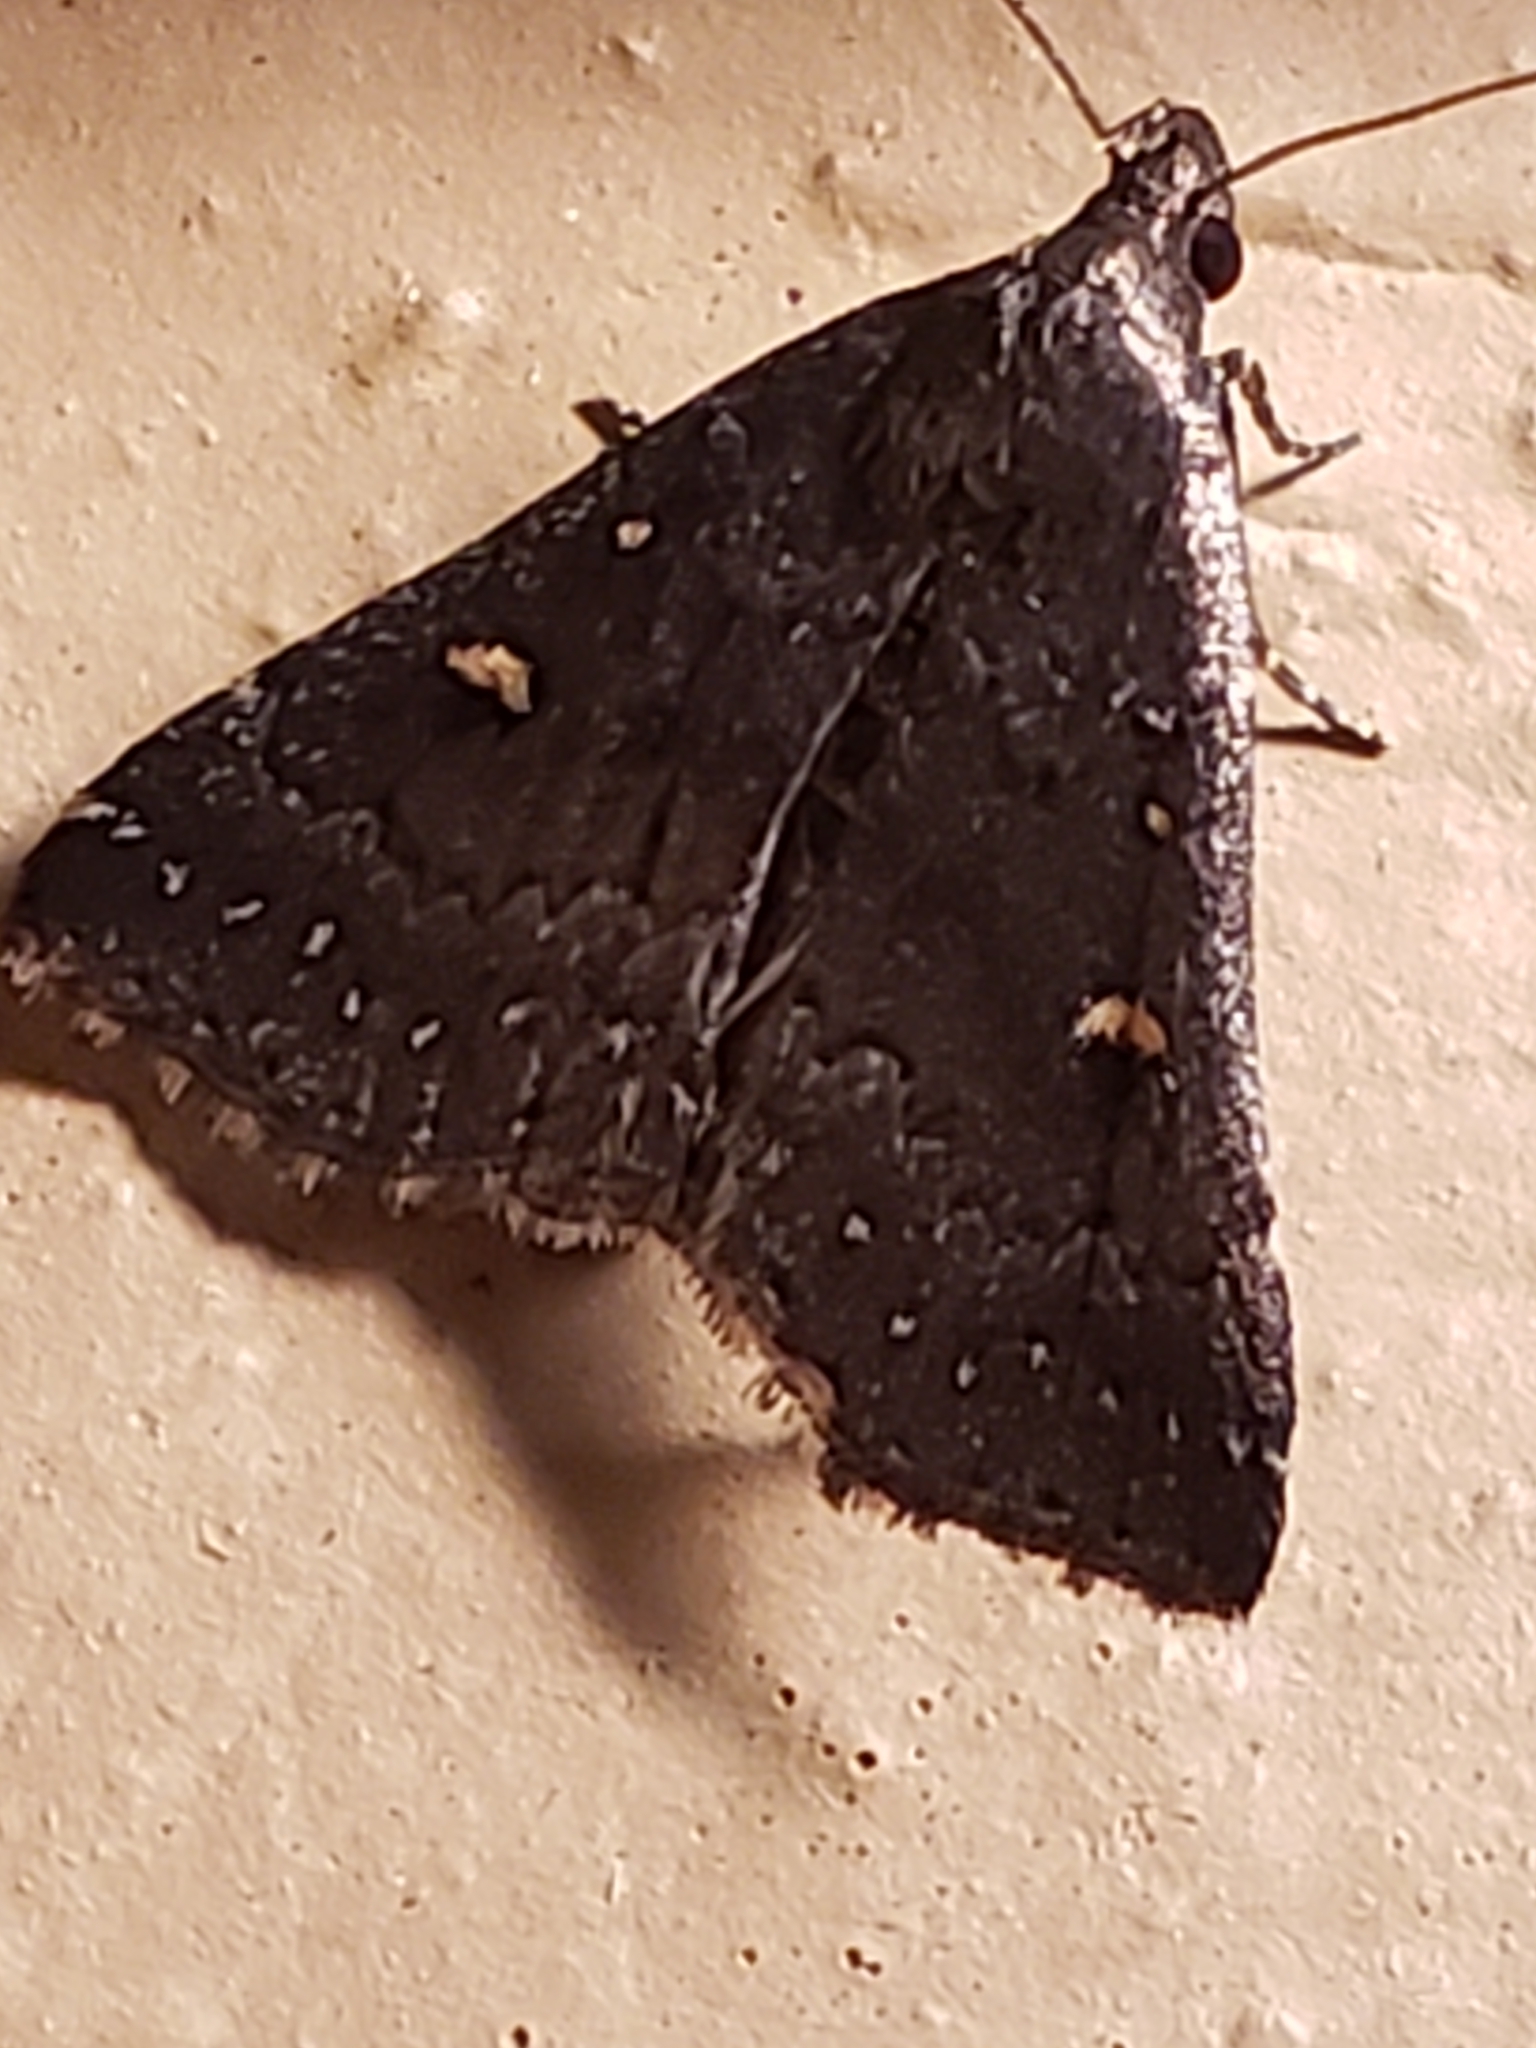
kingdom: Animalia
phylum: Arthropoda
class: Insecta
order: Lepidoptera
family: Erebidae
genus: Tetanolita
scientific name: Tetanolita mynesalis
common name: Smoky tetanolita moth
